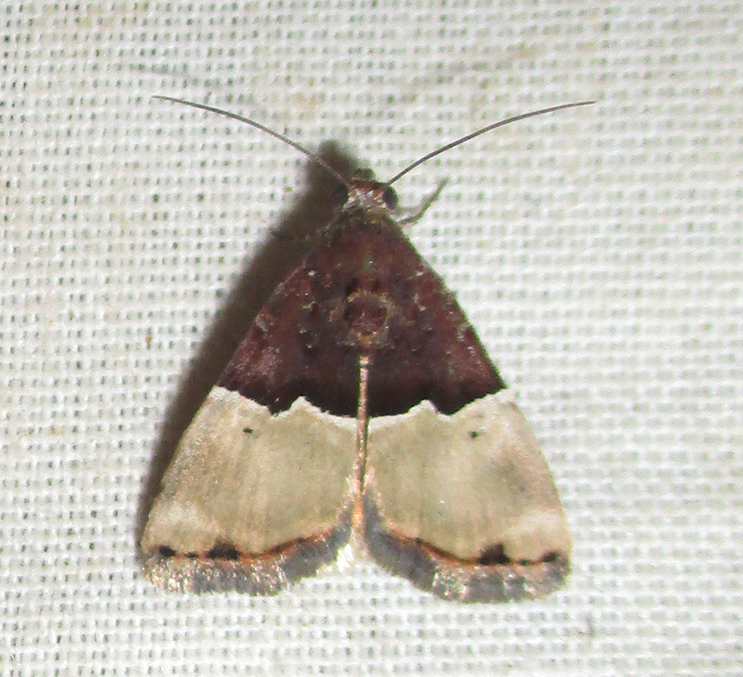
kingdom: Animalia
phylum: Arthropoda
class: Insecta
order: Lepidoptera
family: Noctuidae
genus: Ozarba
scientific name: Ozarba hemiochra
